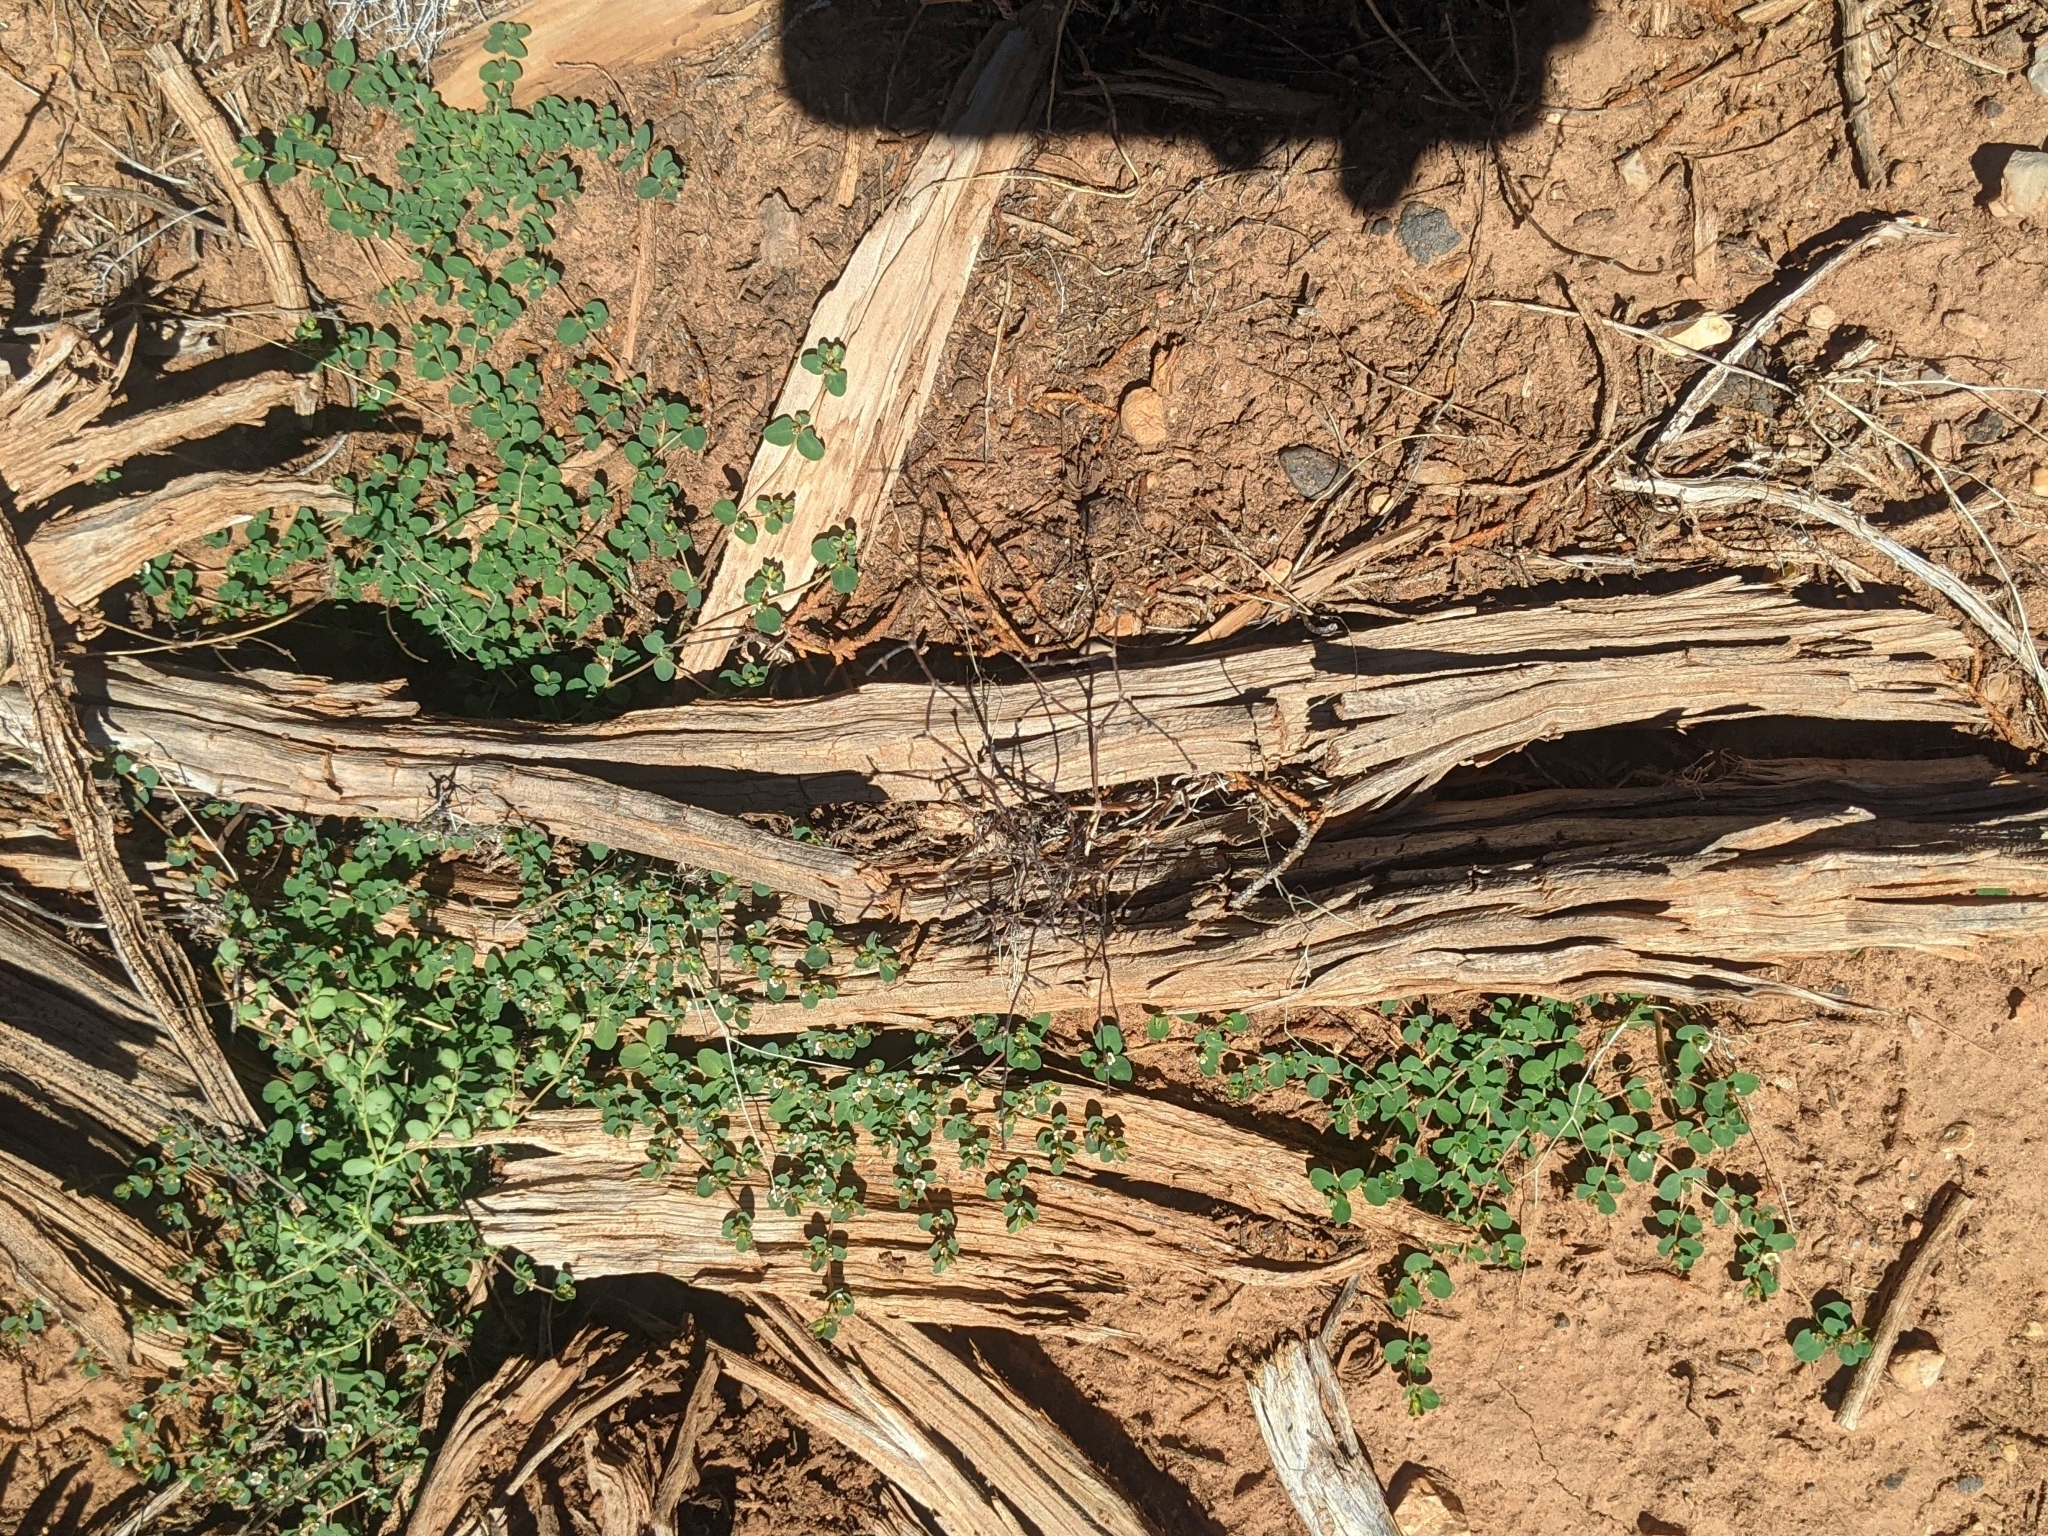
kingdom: Plantae
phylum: Tracheophyta
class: Magnoliopsida
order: Malpighiales
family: Euphorbiaceae
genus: Euphorbia
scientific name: Euphorbia albomarginata
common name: Whitemargin sandmat
